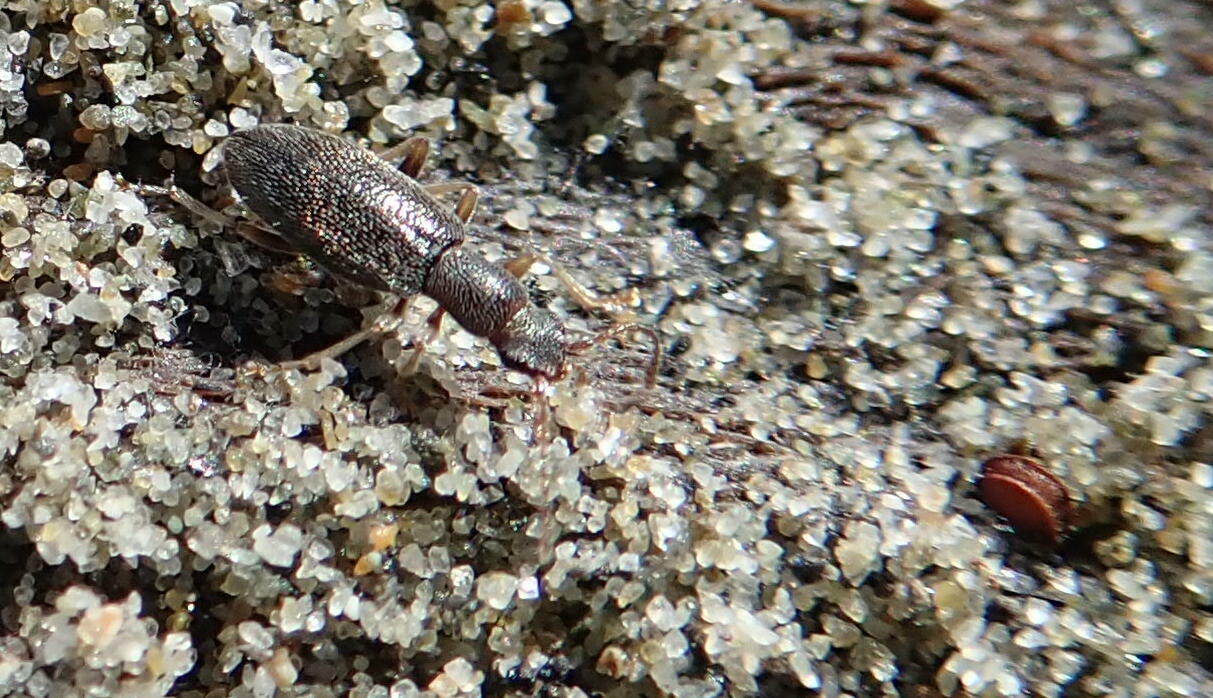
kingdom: Animalia
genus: Lagrioda
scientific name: Lagrioda brounii
